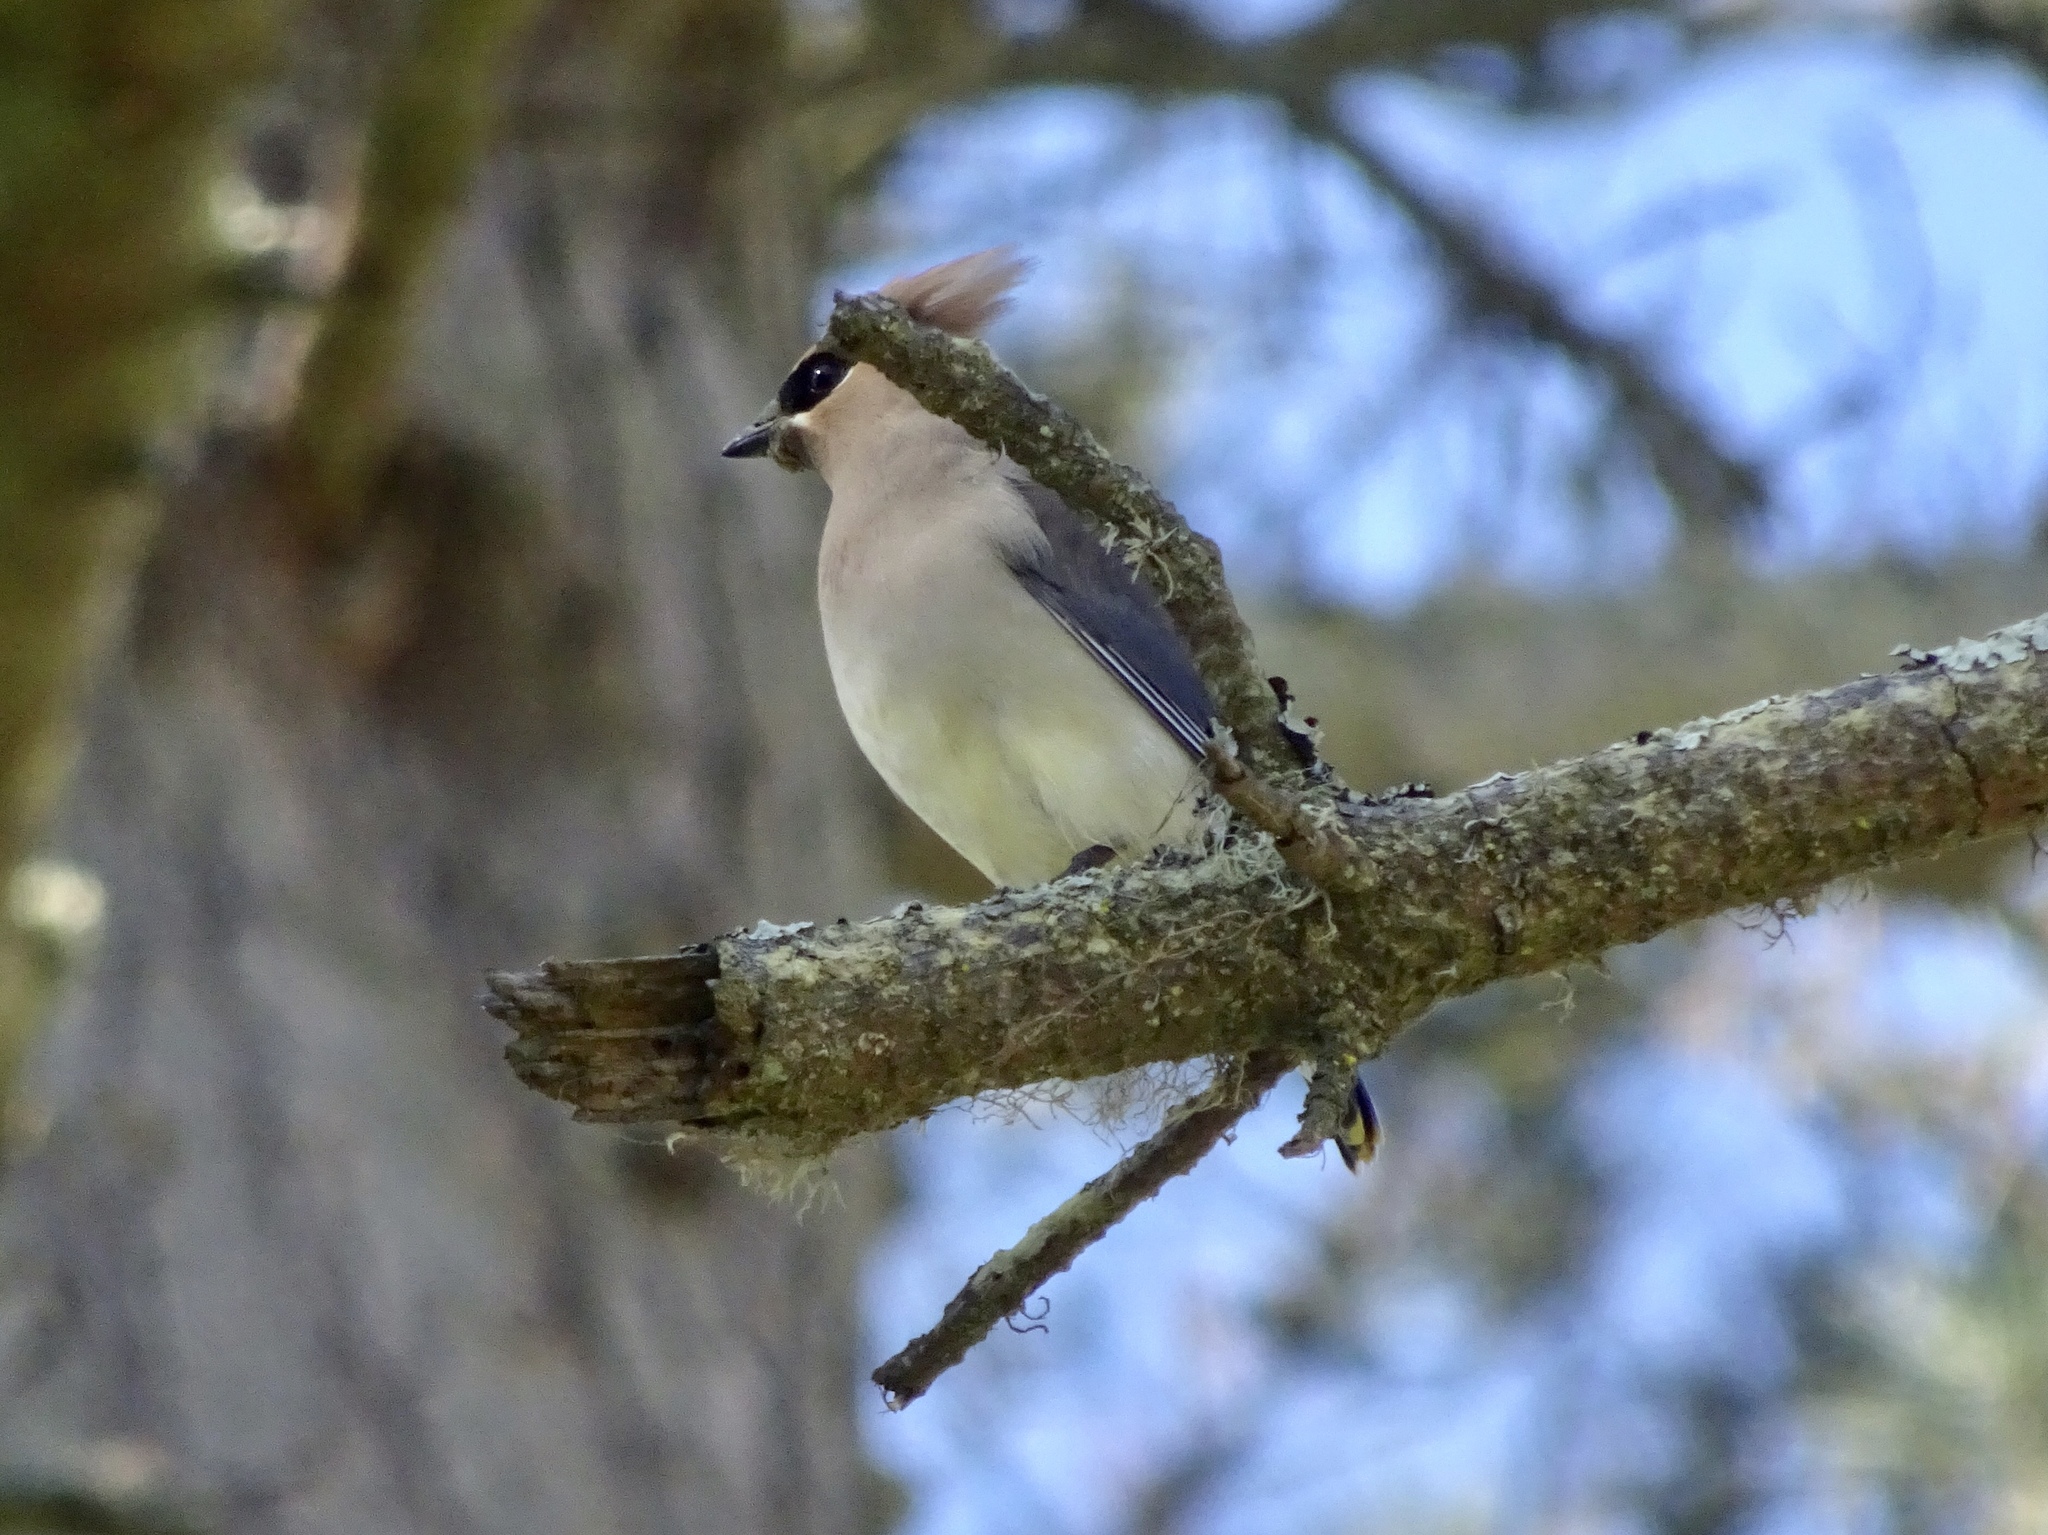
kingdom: Animalia
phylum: Chordata
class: Aves
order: Passeriformes
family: Bombycillidae
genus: Bombycilla
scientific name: Bombycilla cedrorum
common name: Cedar waxwing
